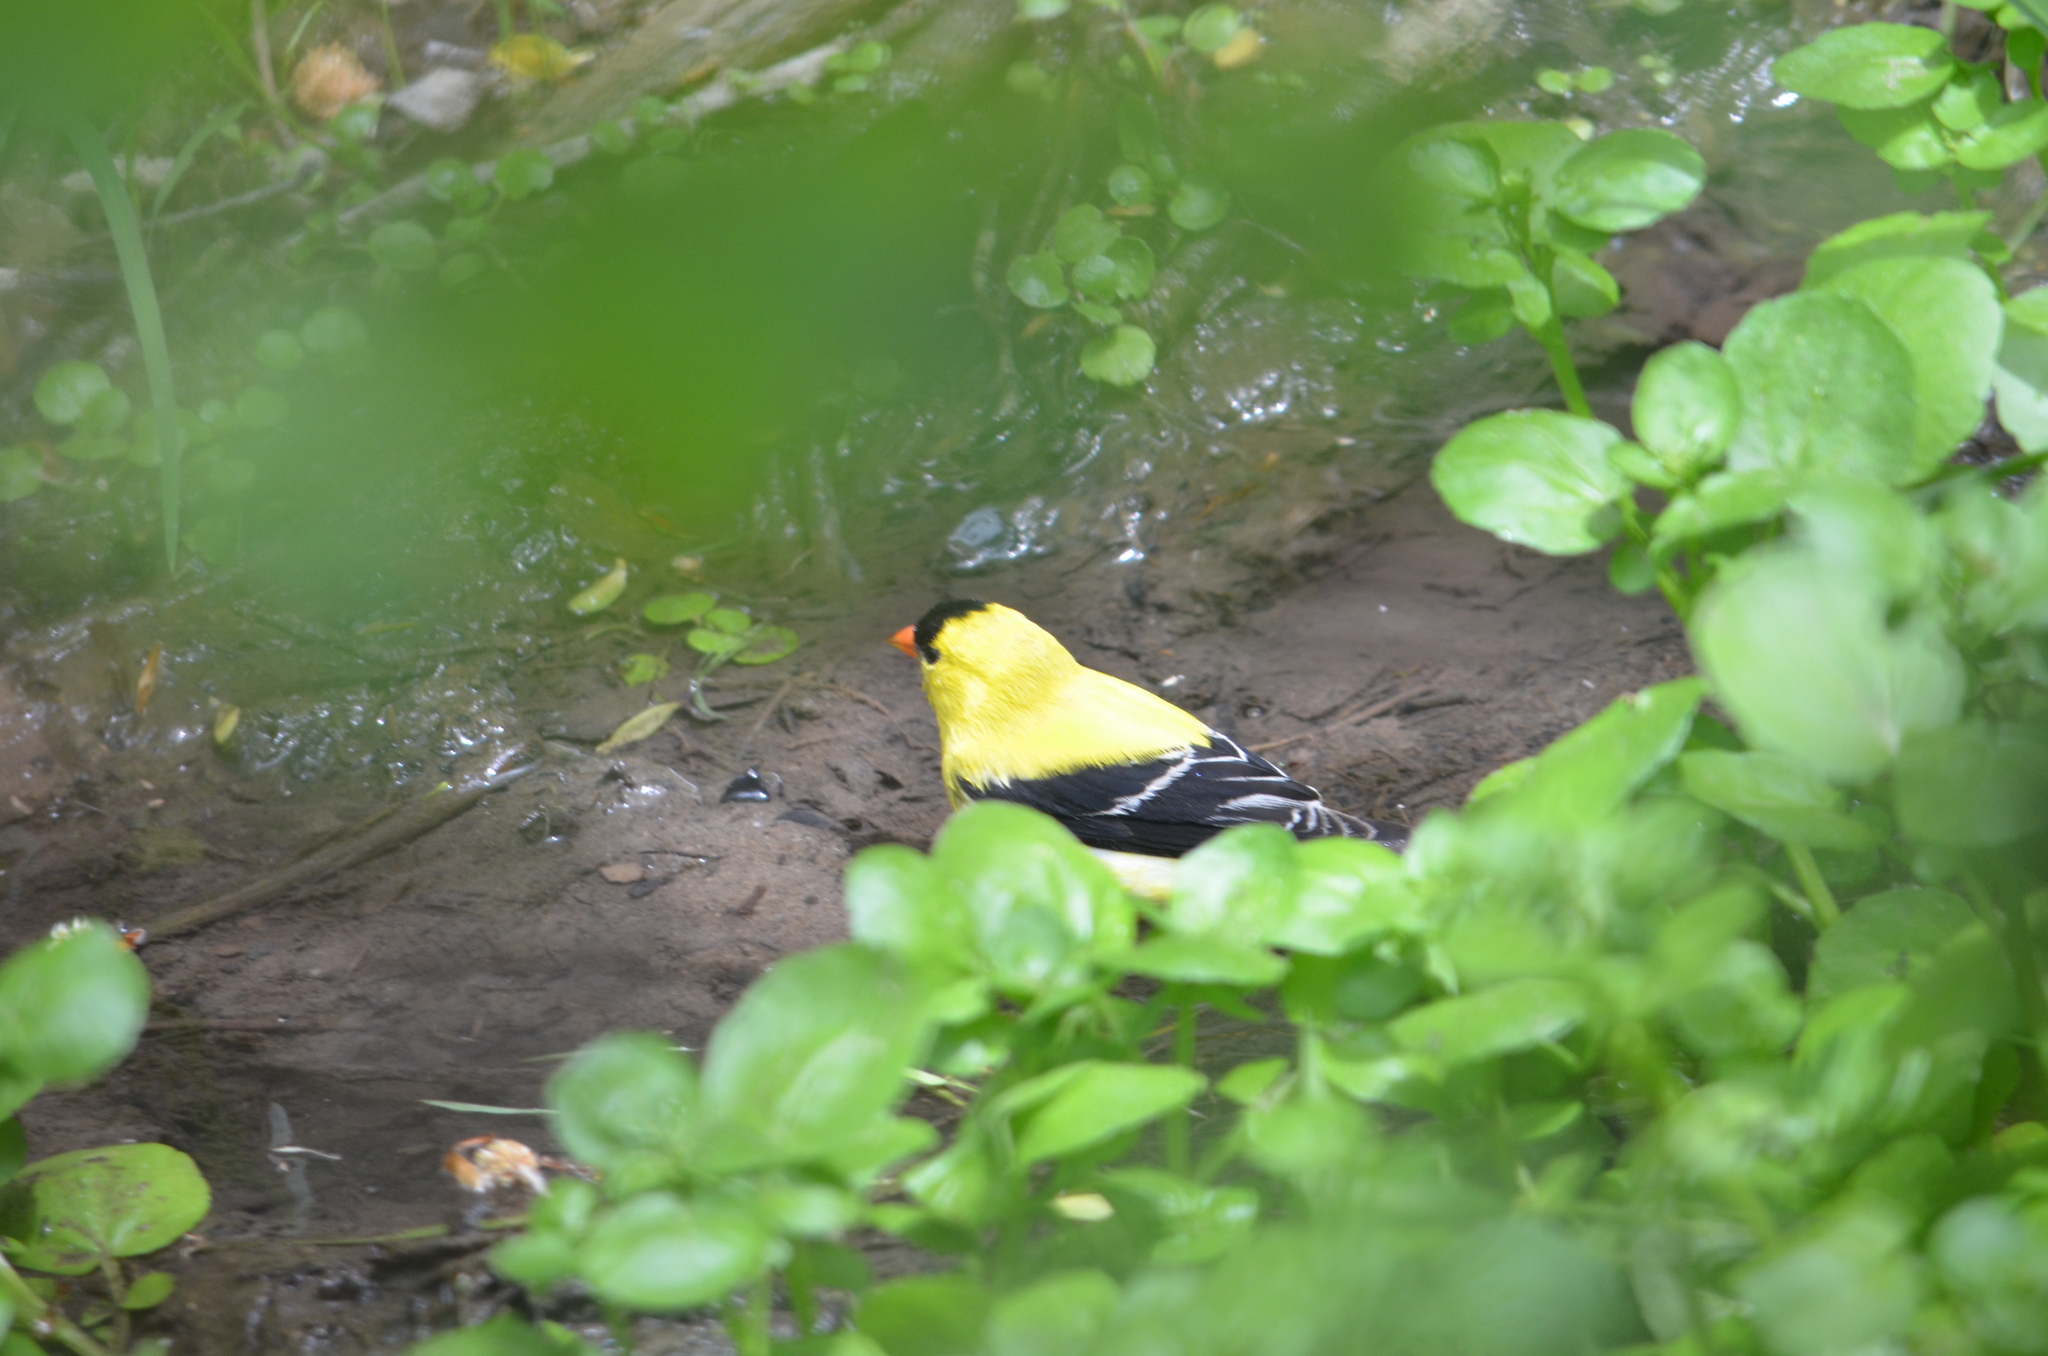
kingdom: Animalia
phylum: Chordata
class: Aves
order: Passeriformes
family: Fringillidae
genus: Spinus
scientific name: Spinus tristis
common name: American goldfinch
